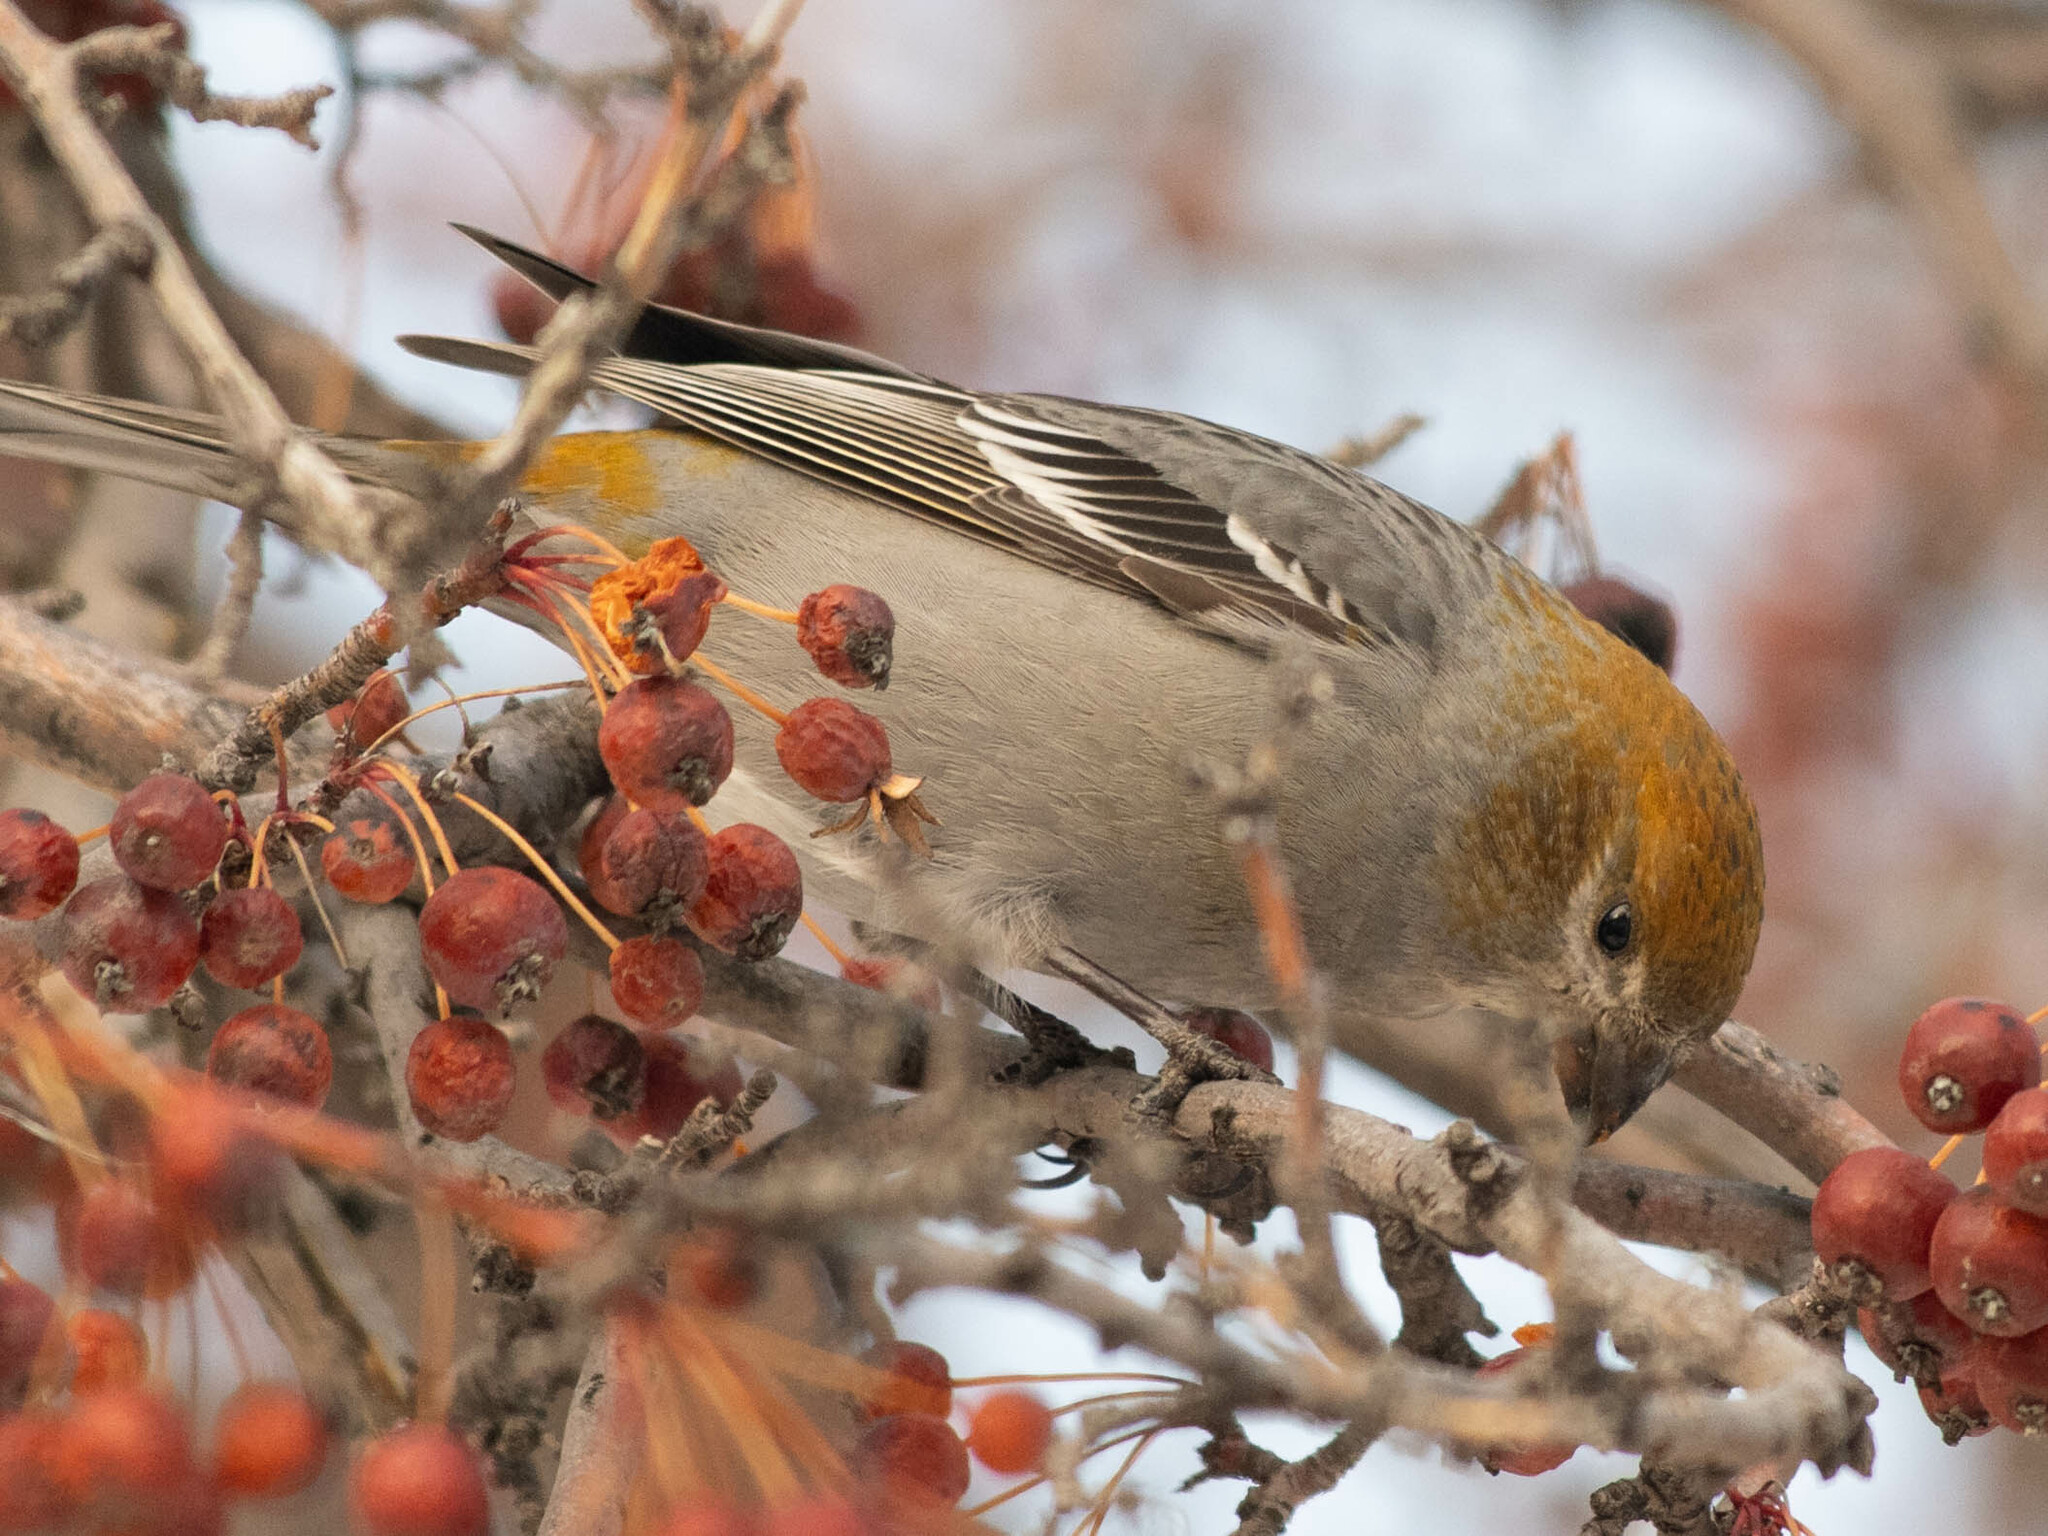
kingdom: Animalia
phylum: Chordata
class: Aves
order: Passeriformes
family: Fringillidae
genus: Pinicola
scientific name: Pinicola enucleator
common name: Pine grosbeak
